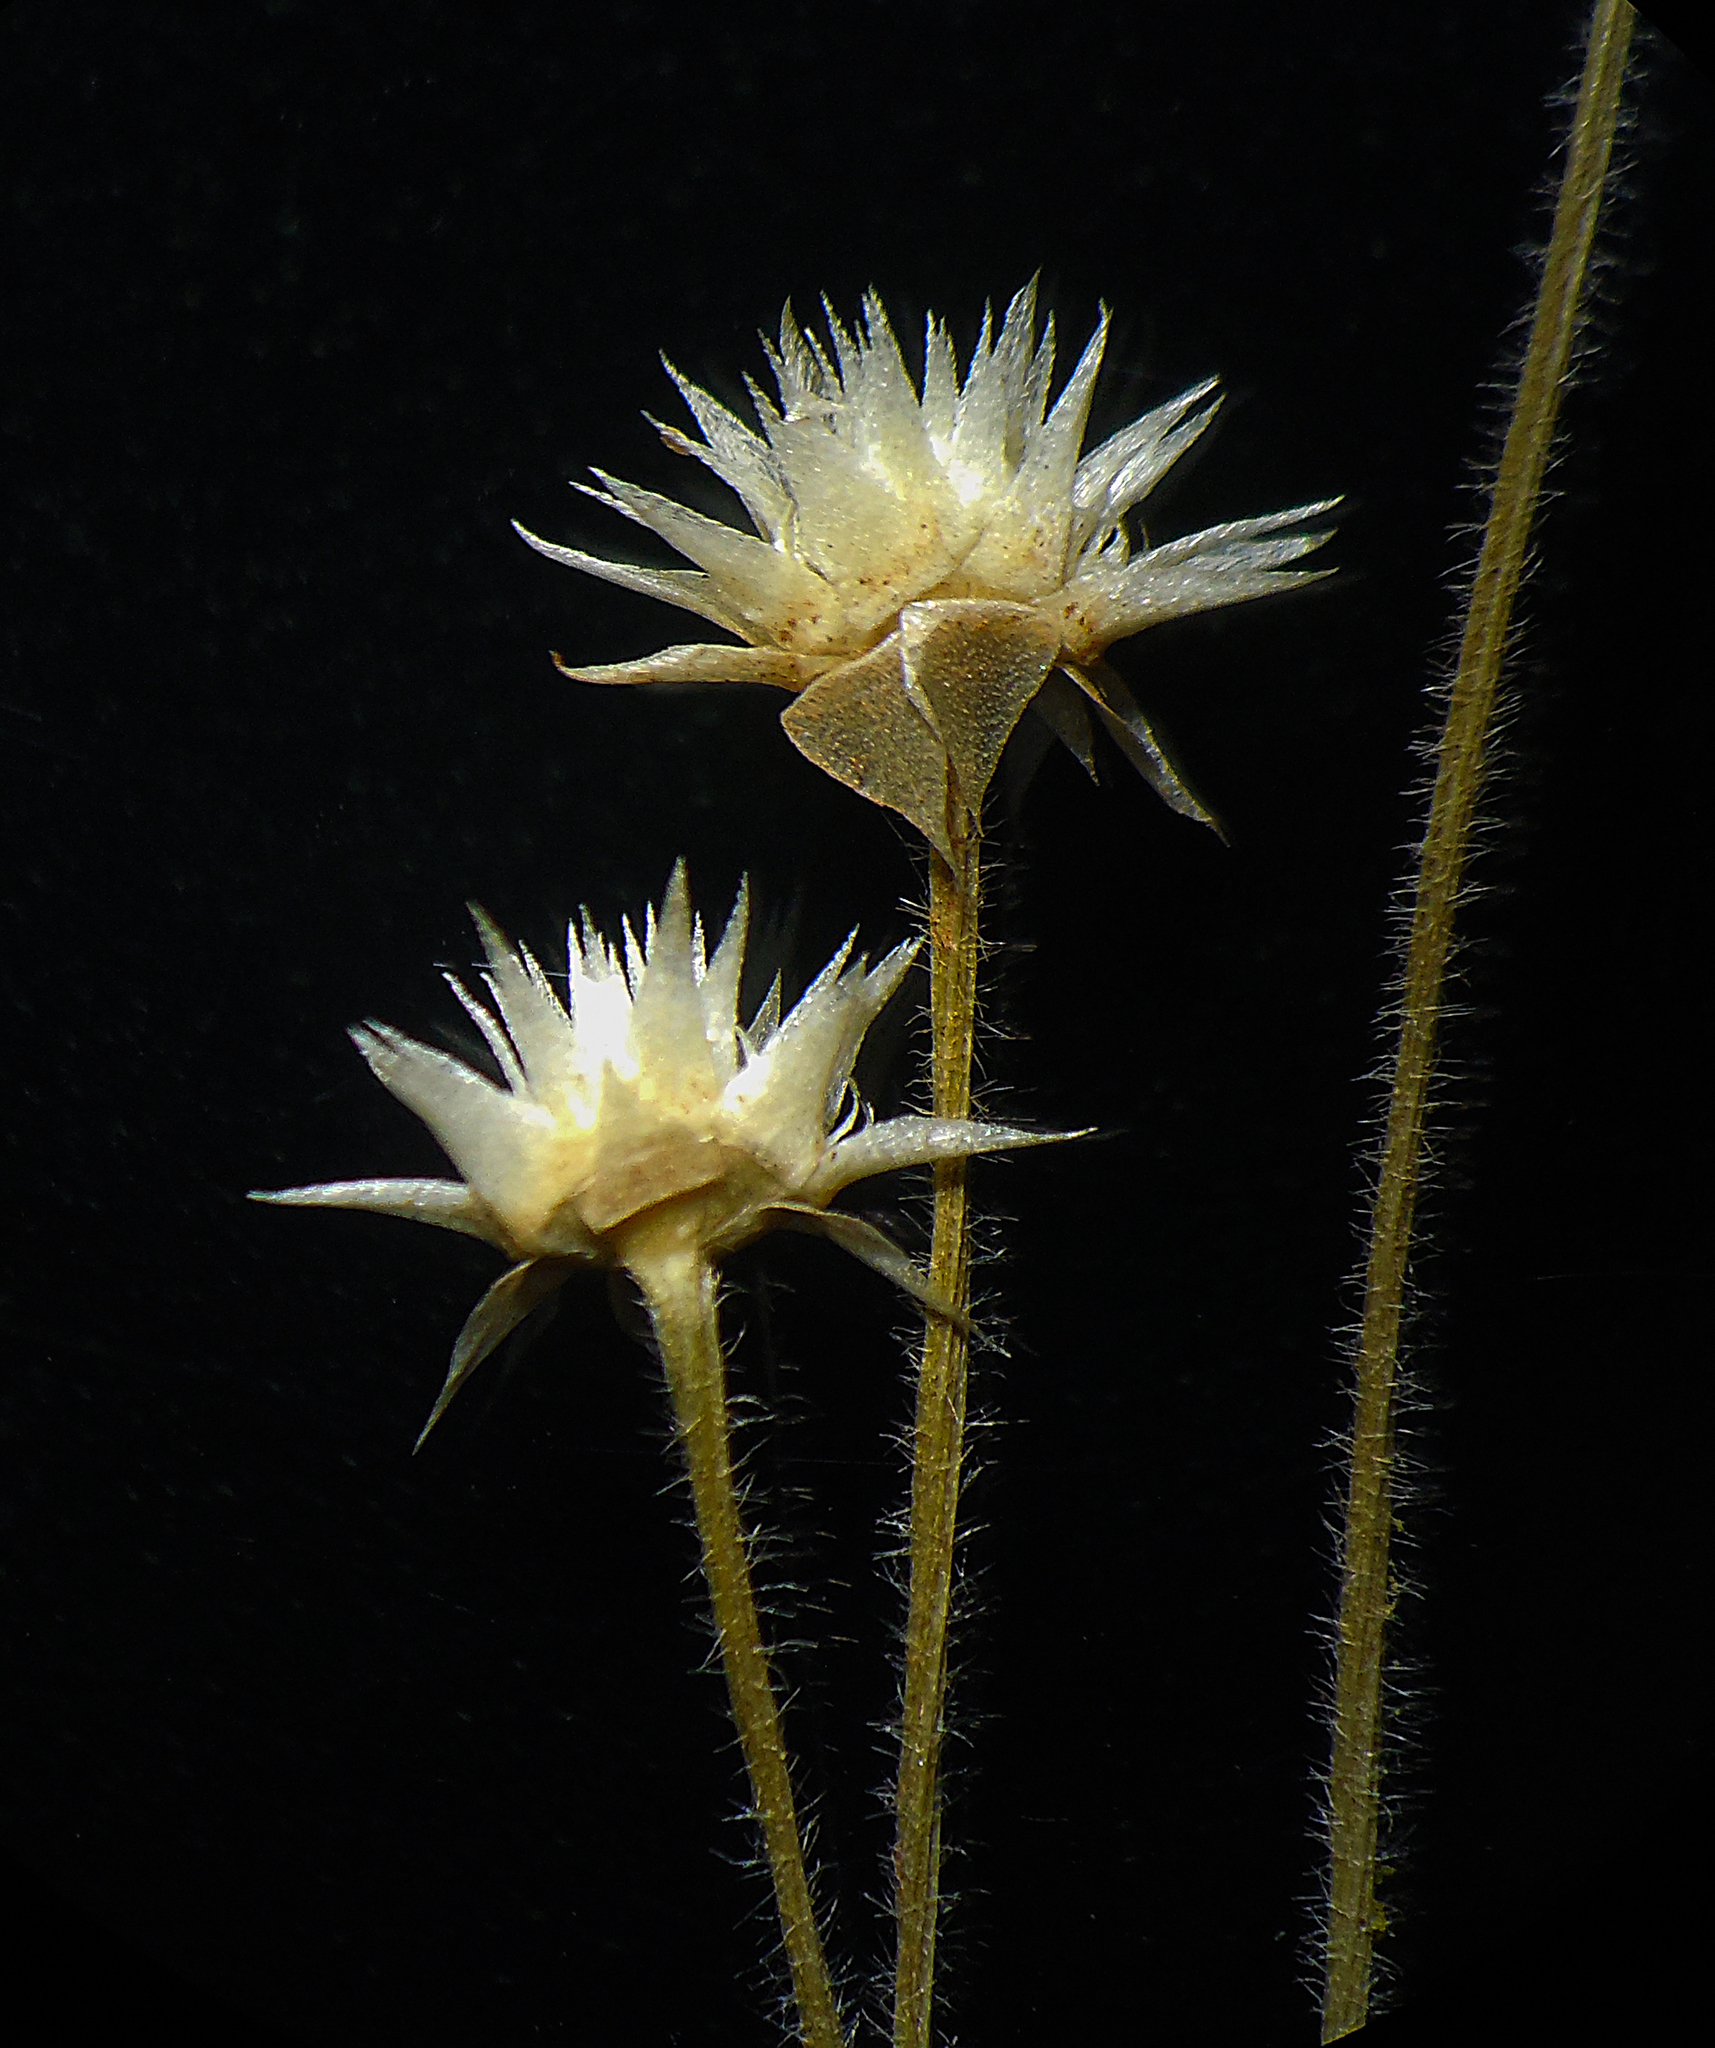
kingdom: Plantae
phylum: Tracheophyta
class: Liliopsida
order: Poales
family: Eriocaulaceae
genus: Eriocaulon
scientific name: Eriocaulon stellulatum
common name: Starry pipewort
